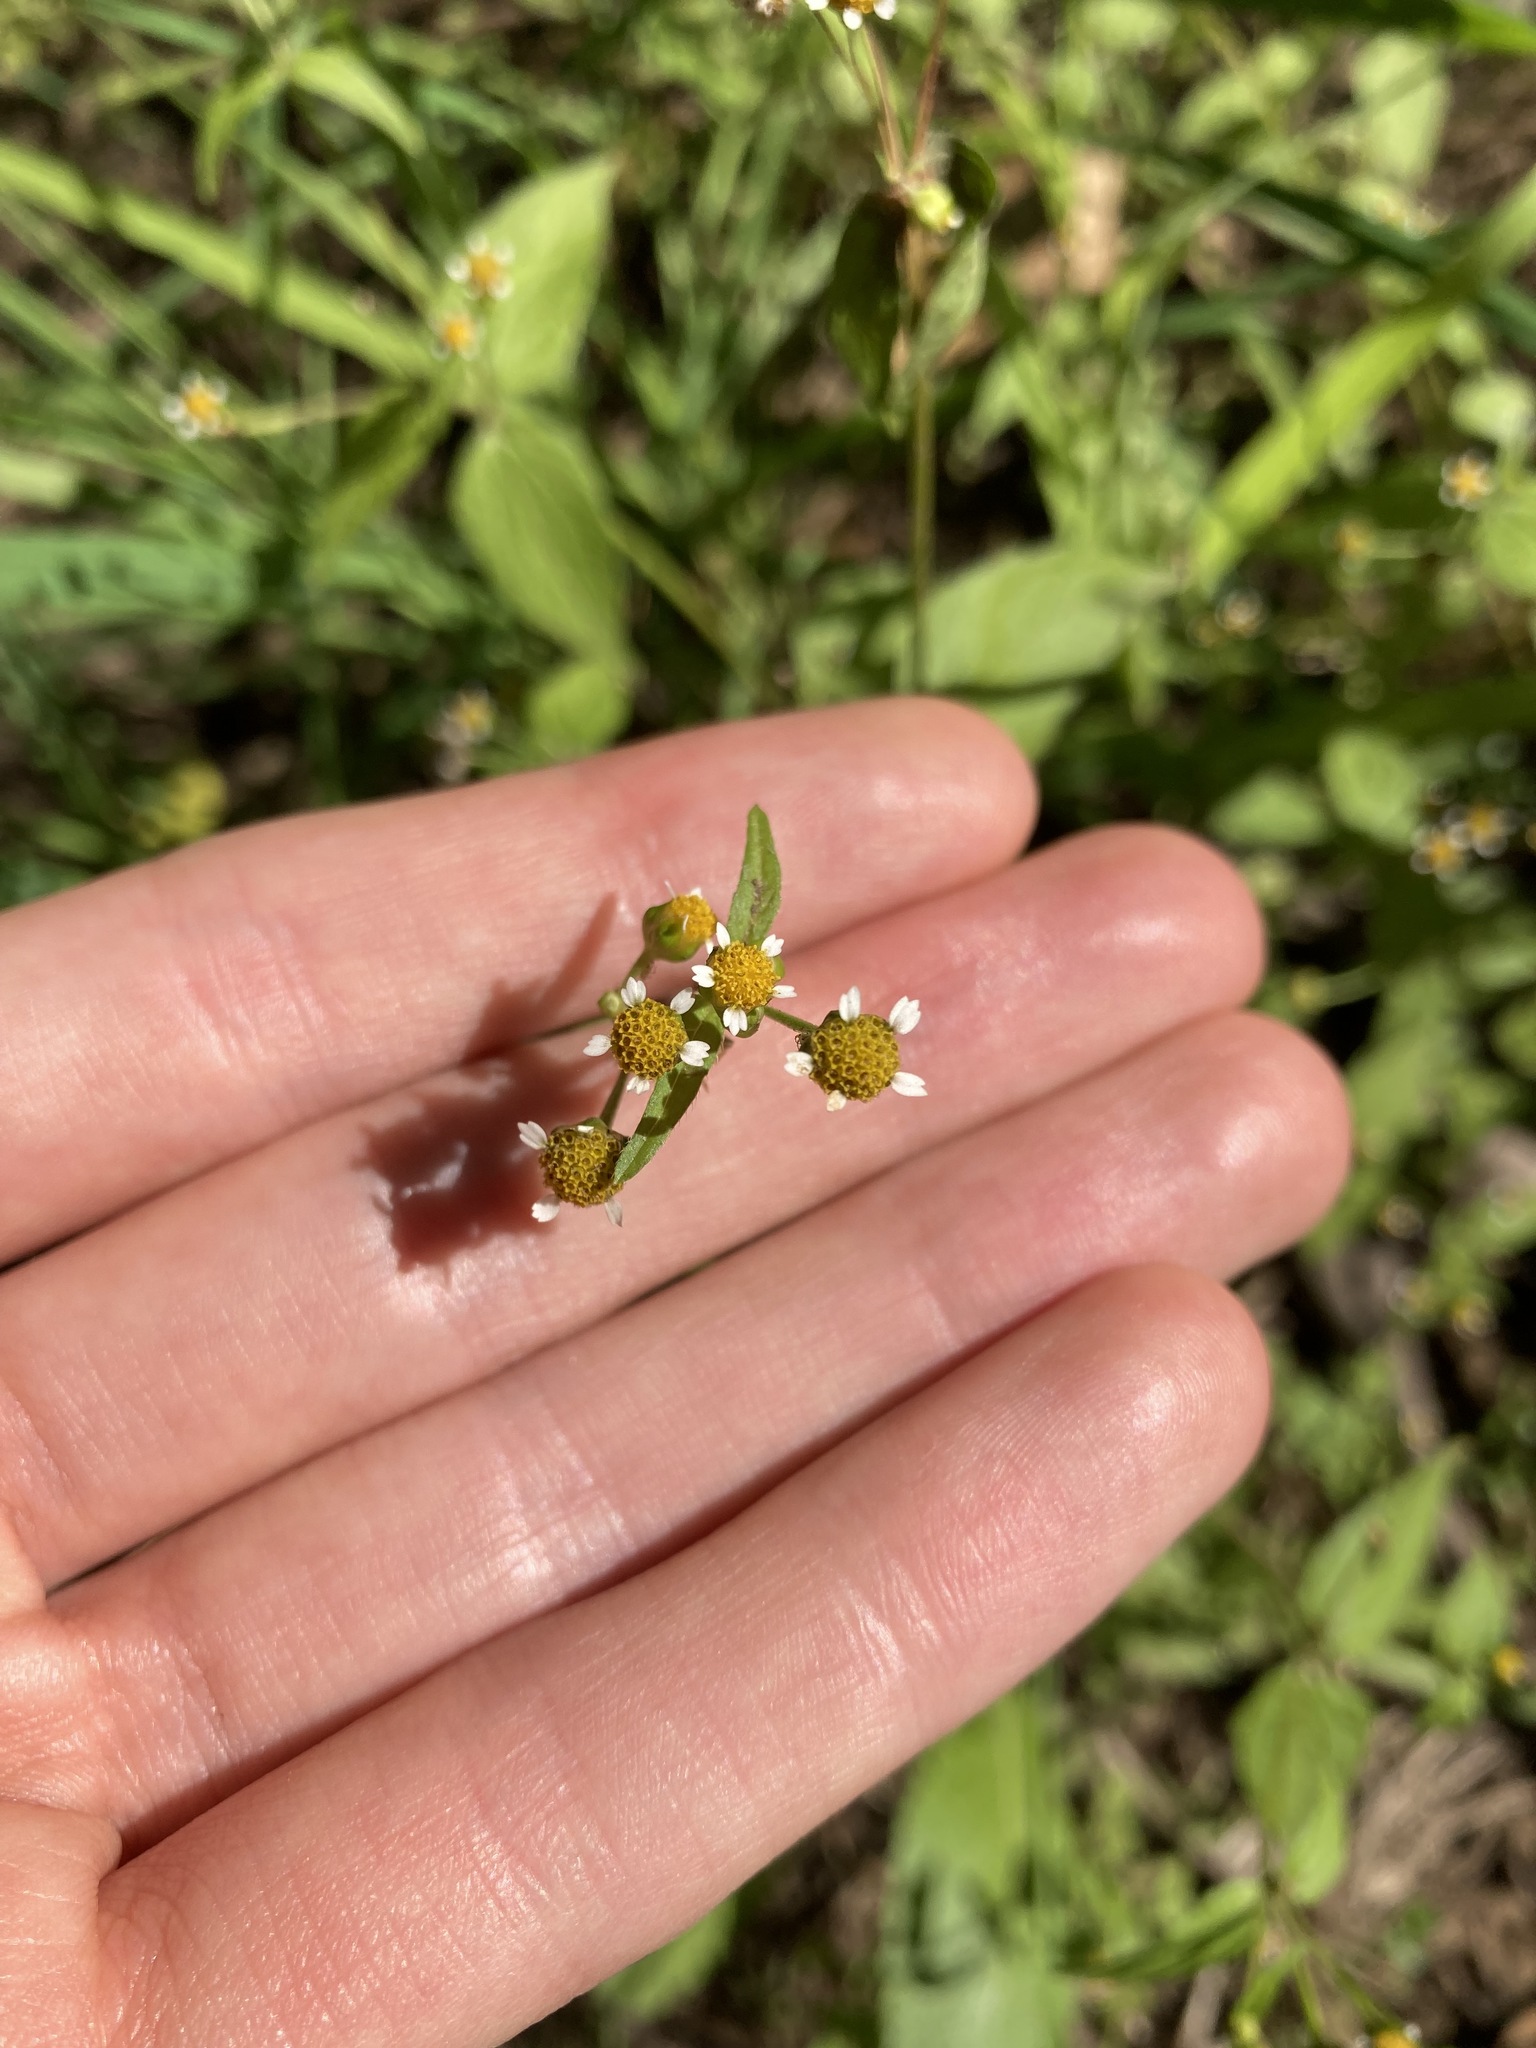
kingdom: Plantae
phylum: Tracheophyta
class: Magnoliopsida
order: Asterales
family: Asteraceae
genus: Galinsoga
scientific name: Galinsoga parviflora
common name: Gallant soldier
